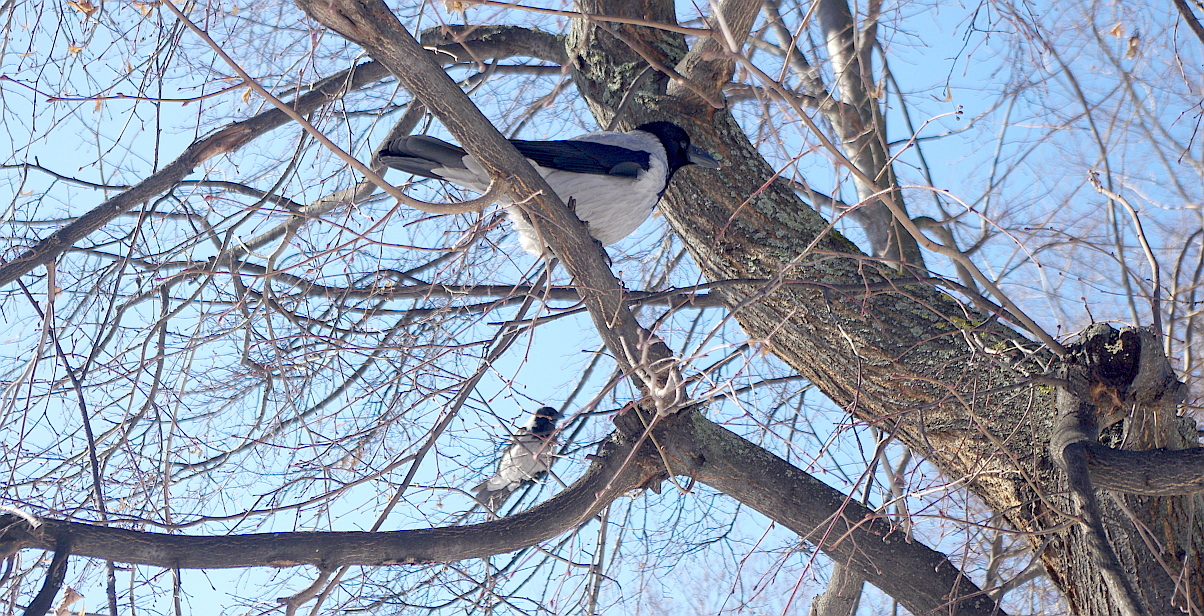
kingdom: Animalia
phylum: Chordata
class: Aves
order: Passeriformes
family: Corvidae
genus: Corvus
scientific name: Corvus cornix
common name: Hooded crow
